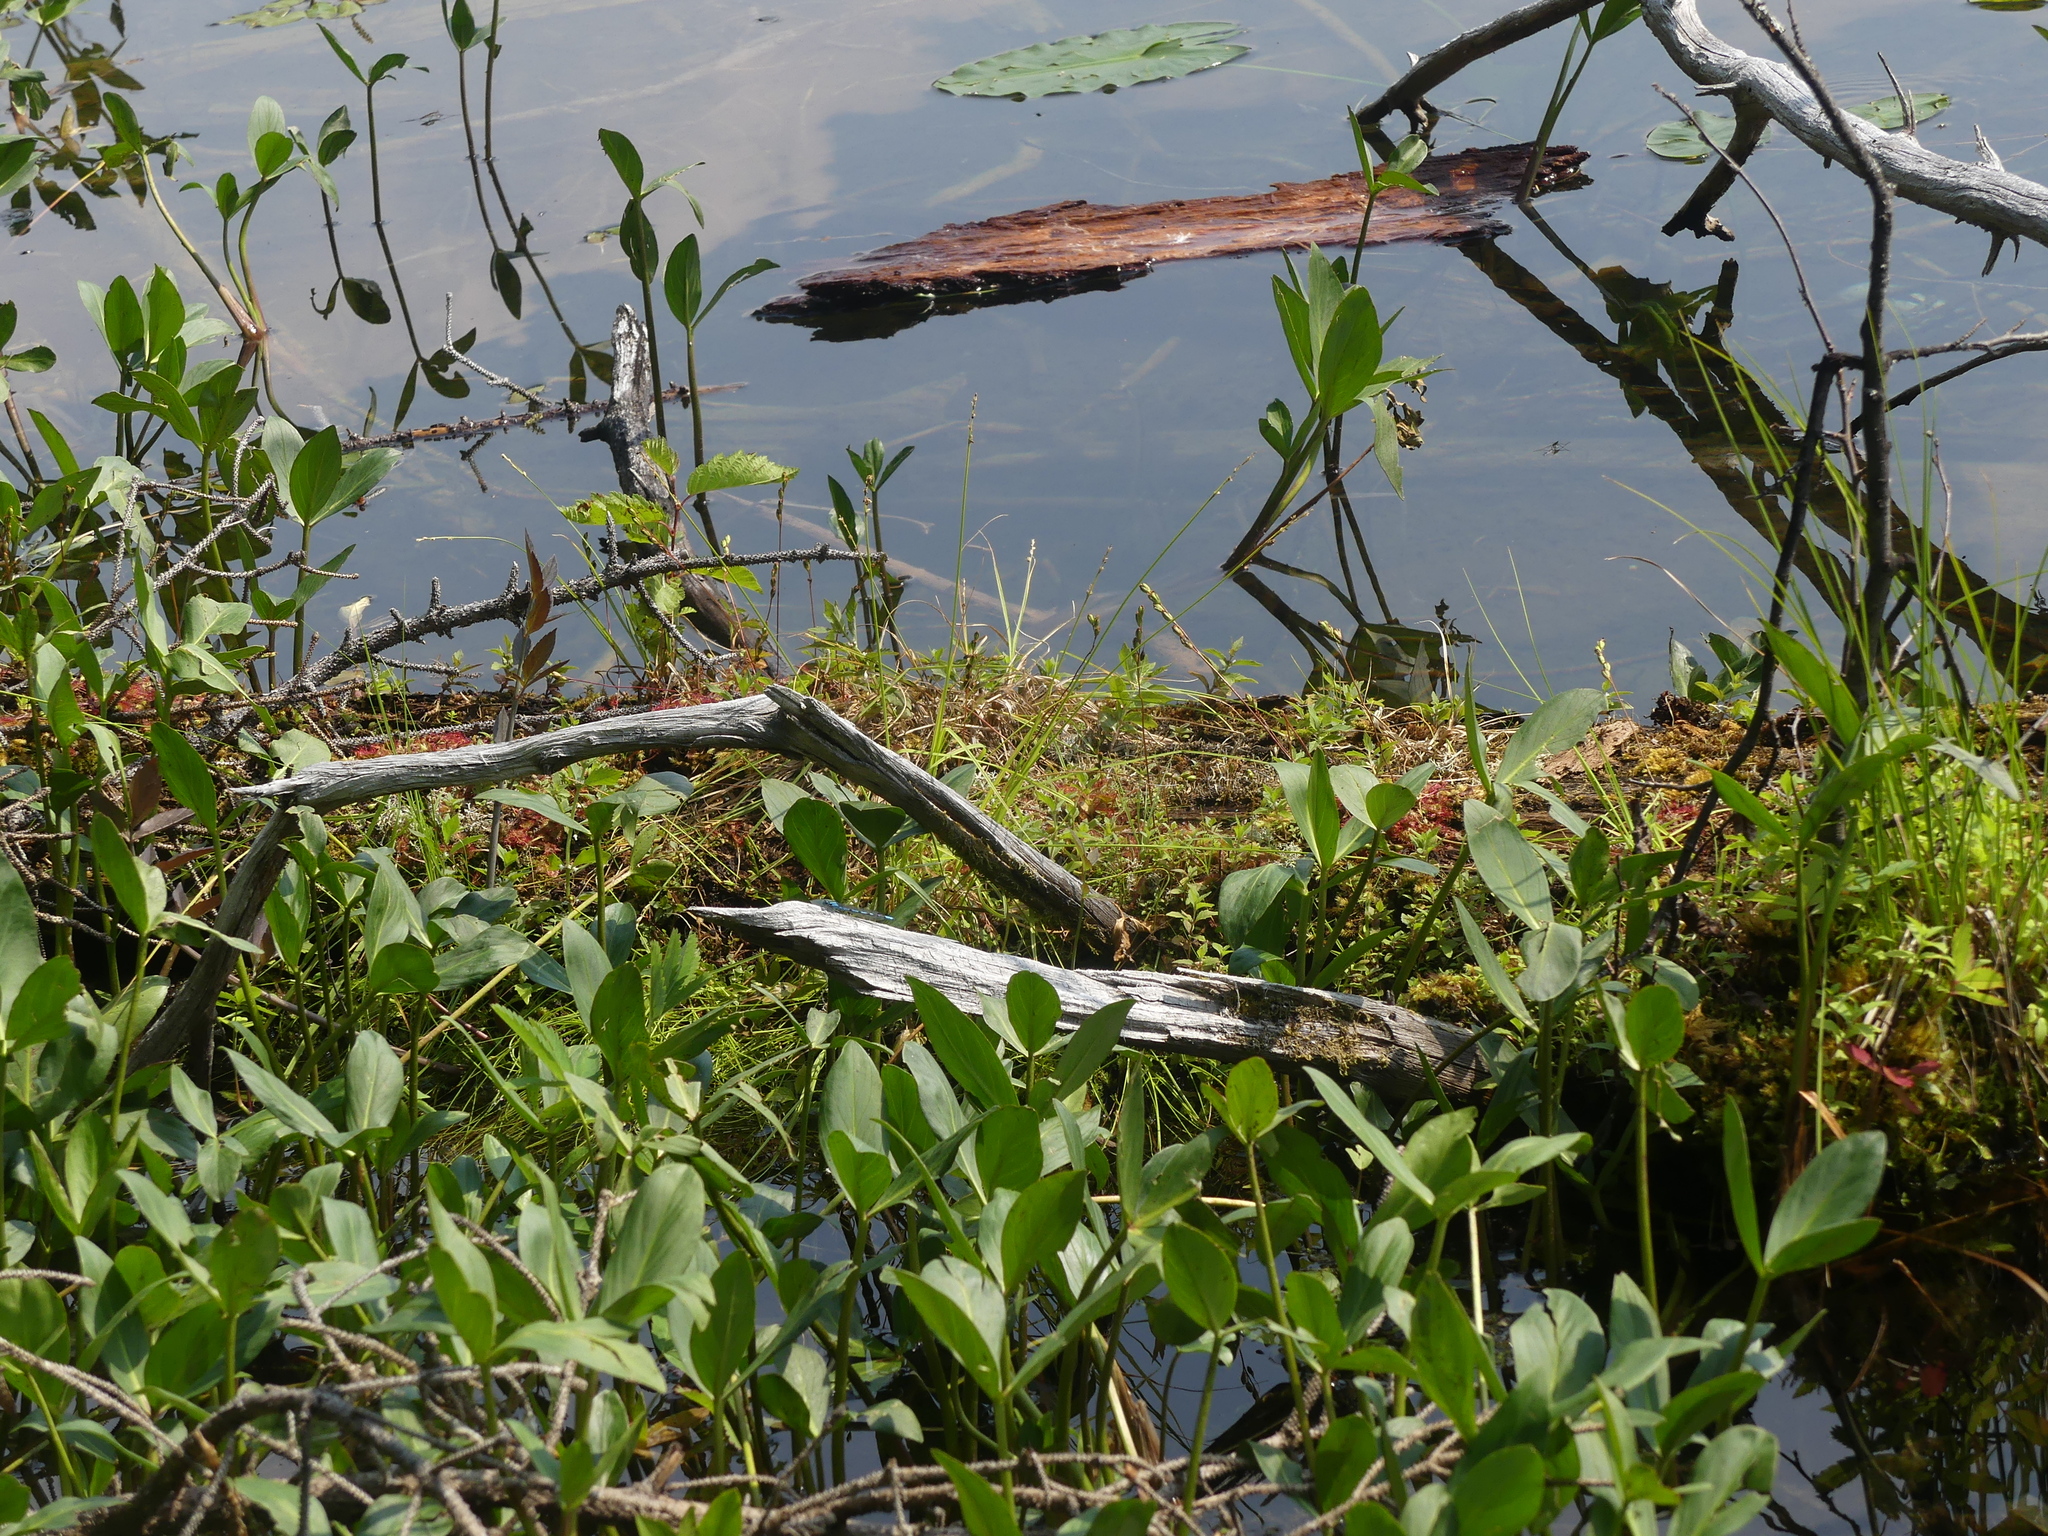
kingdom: Plantae
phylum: Tracheophyta
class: Magnoliopsida
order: Asterales
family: Menyanthaceae
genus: Menyanthes
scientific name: Menyanthes trifoliata
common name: Bogbean
